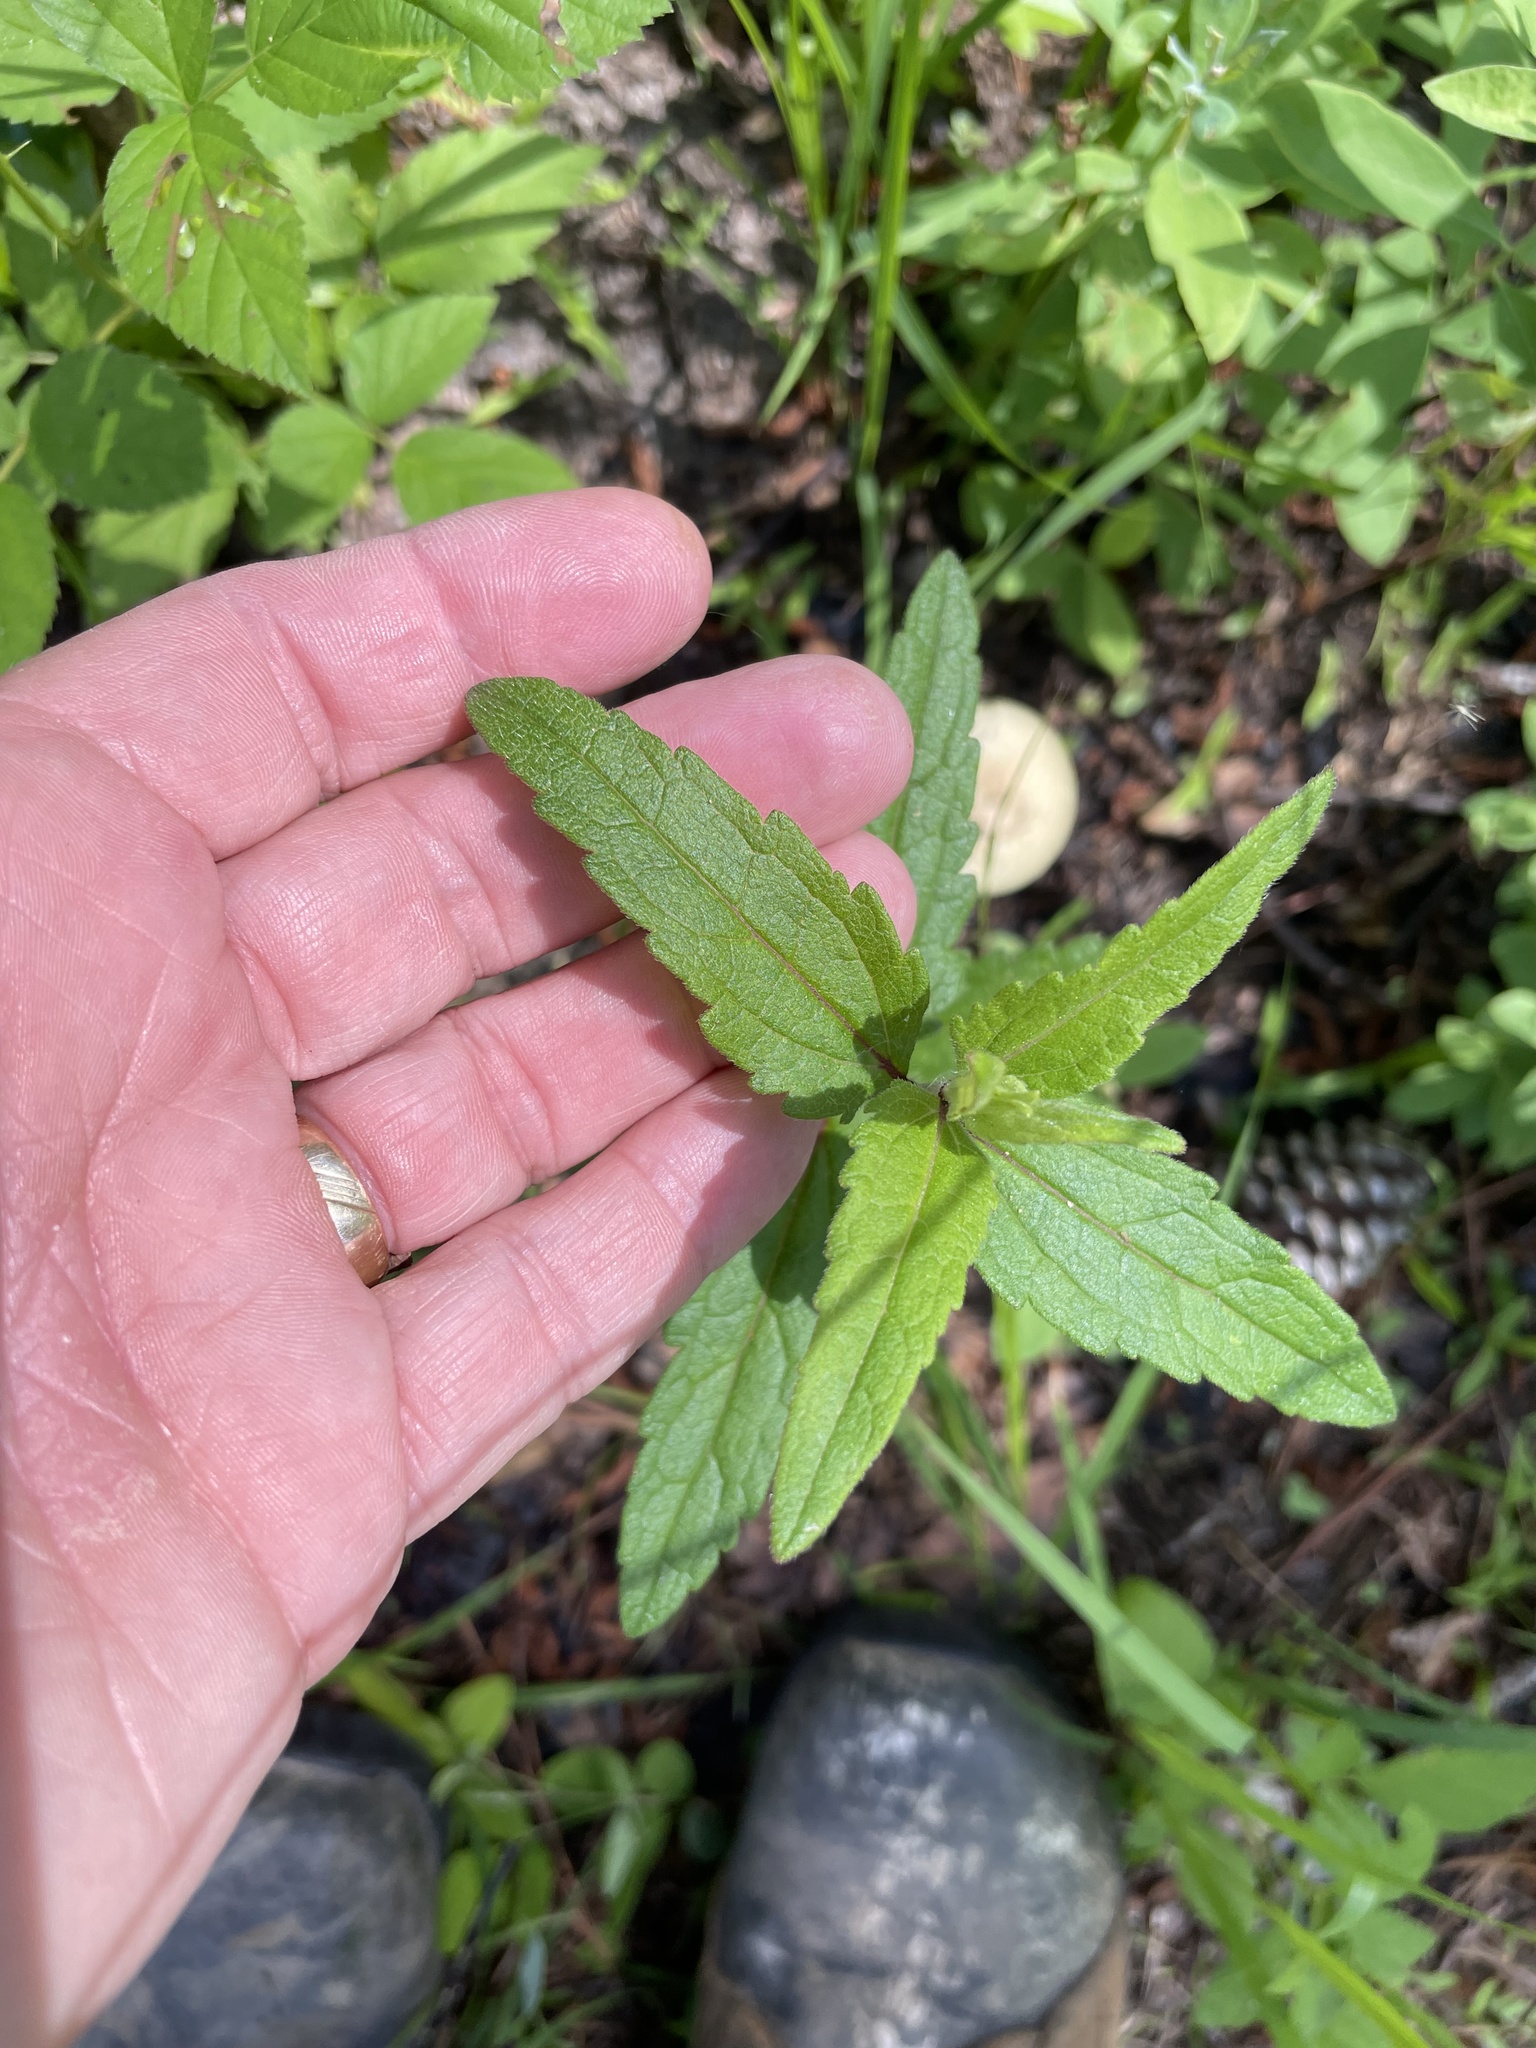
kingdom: Plantae
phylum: Tracheophyta
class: Magnoliopsida
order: Asterales
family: Asteraceae
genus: Eupatorium
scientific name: Eupatorium pilosum
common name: Rough boneset
